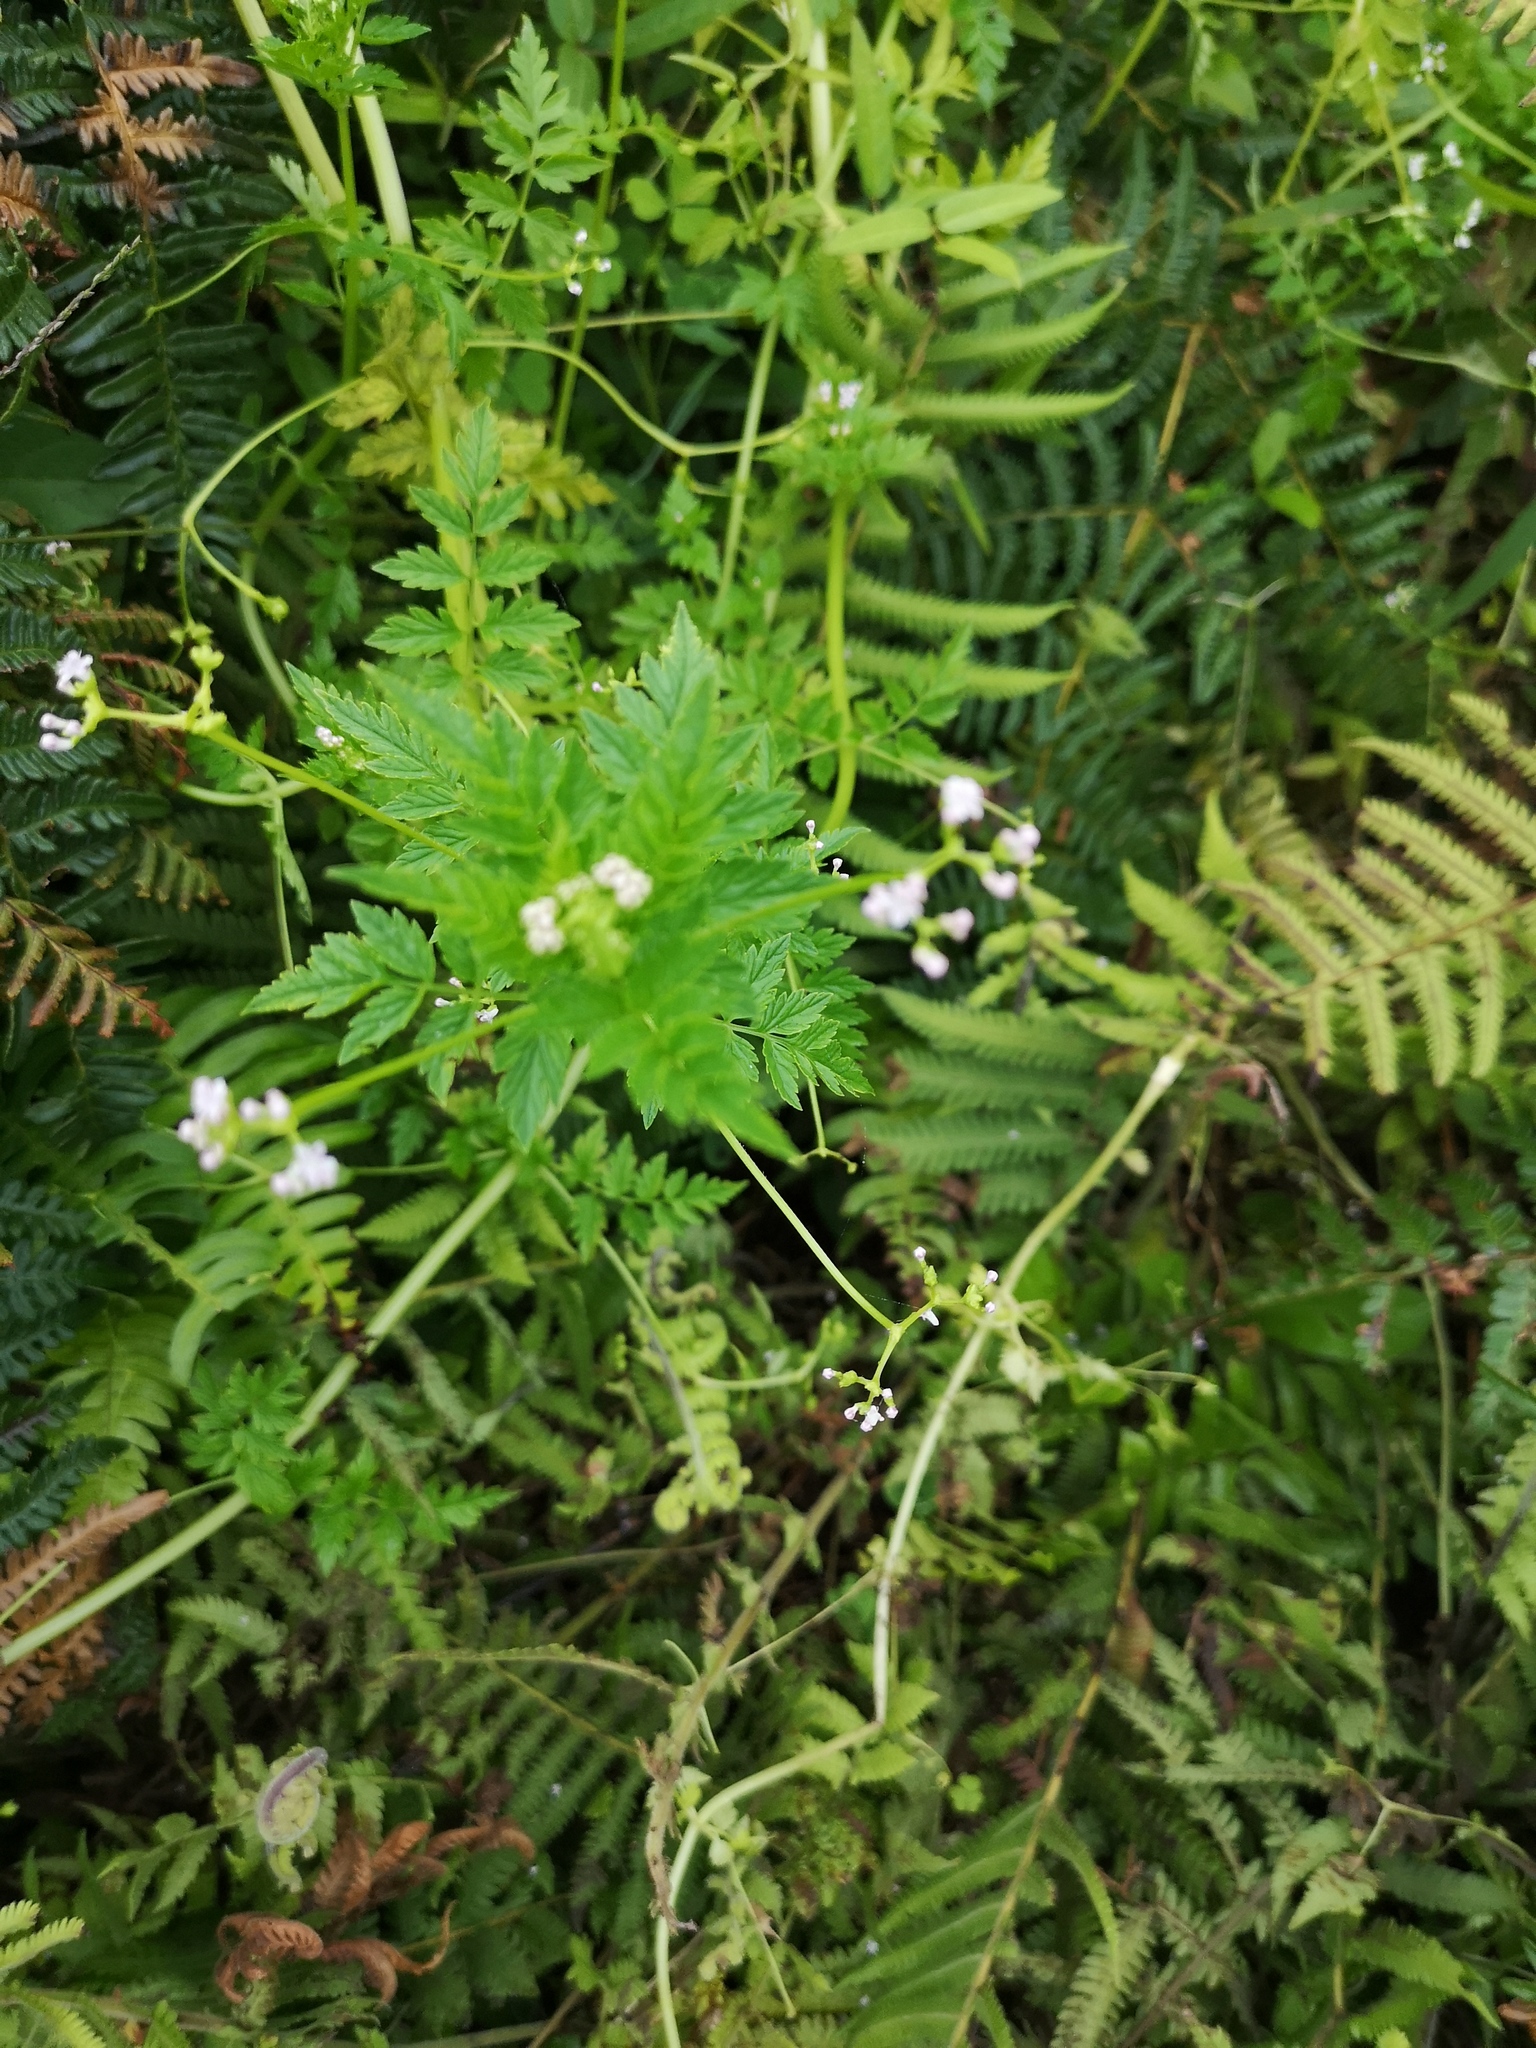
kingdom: Plantae
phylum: Tracheophyta
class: Magnoliopsida
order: Dipsacales
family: Caprifoliaceae
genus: Valeriana
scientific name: Valeriana chaerophylloides
